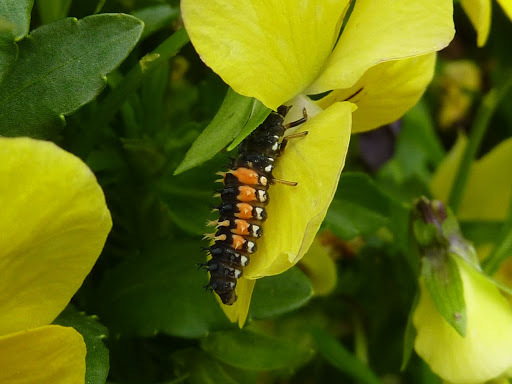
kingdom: Animalia
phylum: Arthropoda
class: Insecta
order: Coleoptera
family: Coccinellidae
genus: Harmonia
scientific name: Harmonia axyridis
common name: Harlequin ladybird
